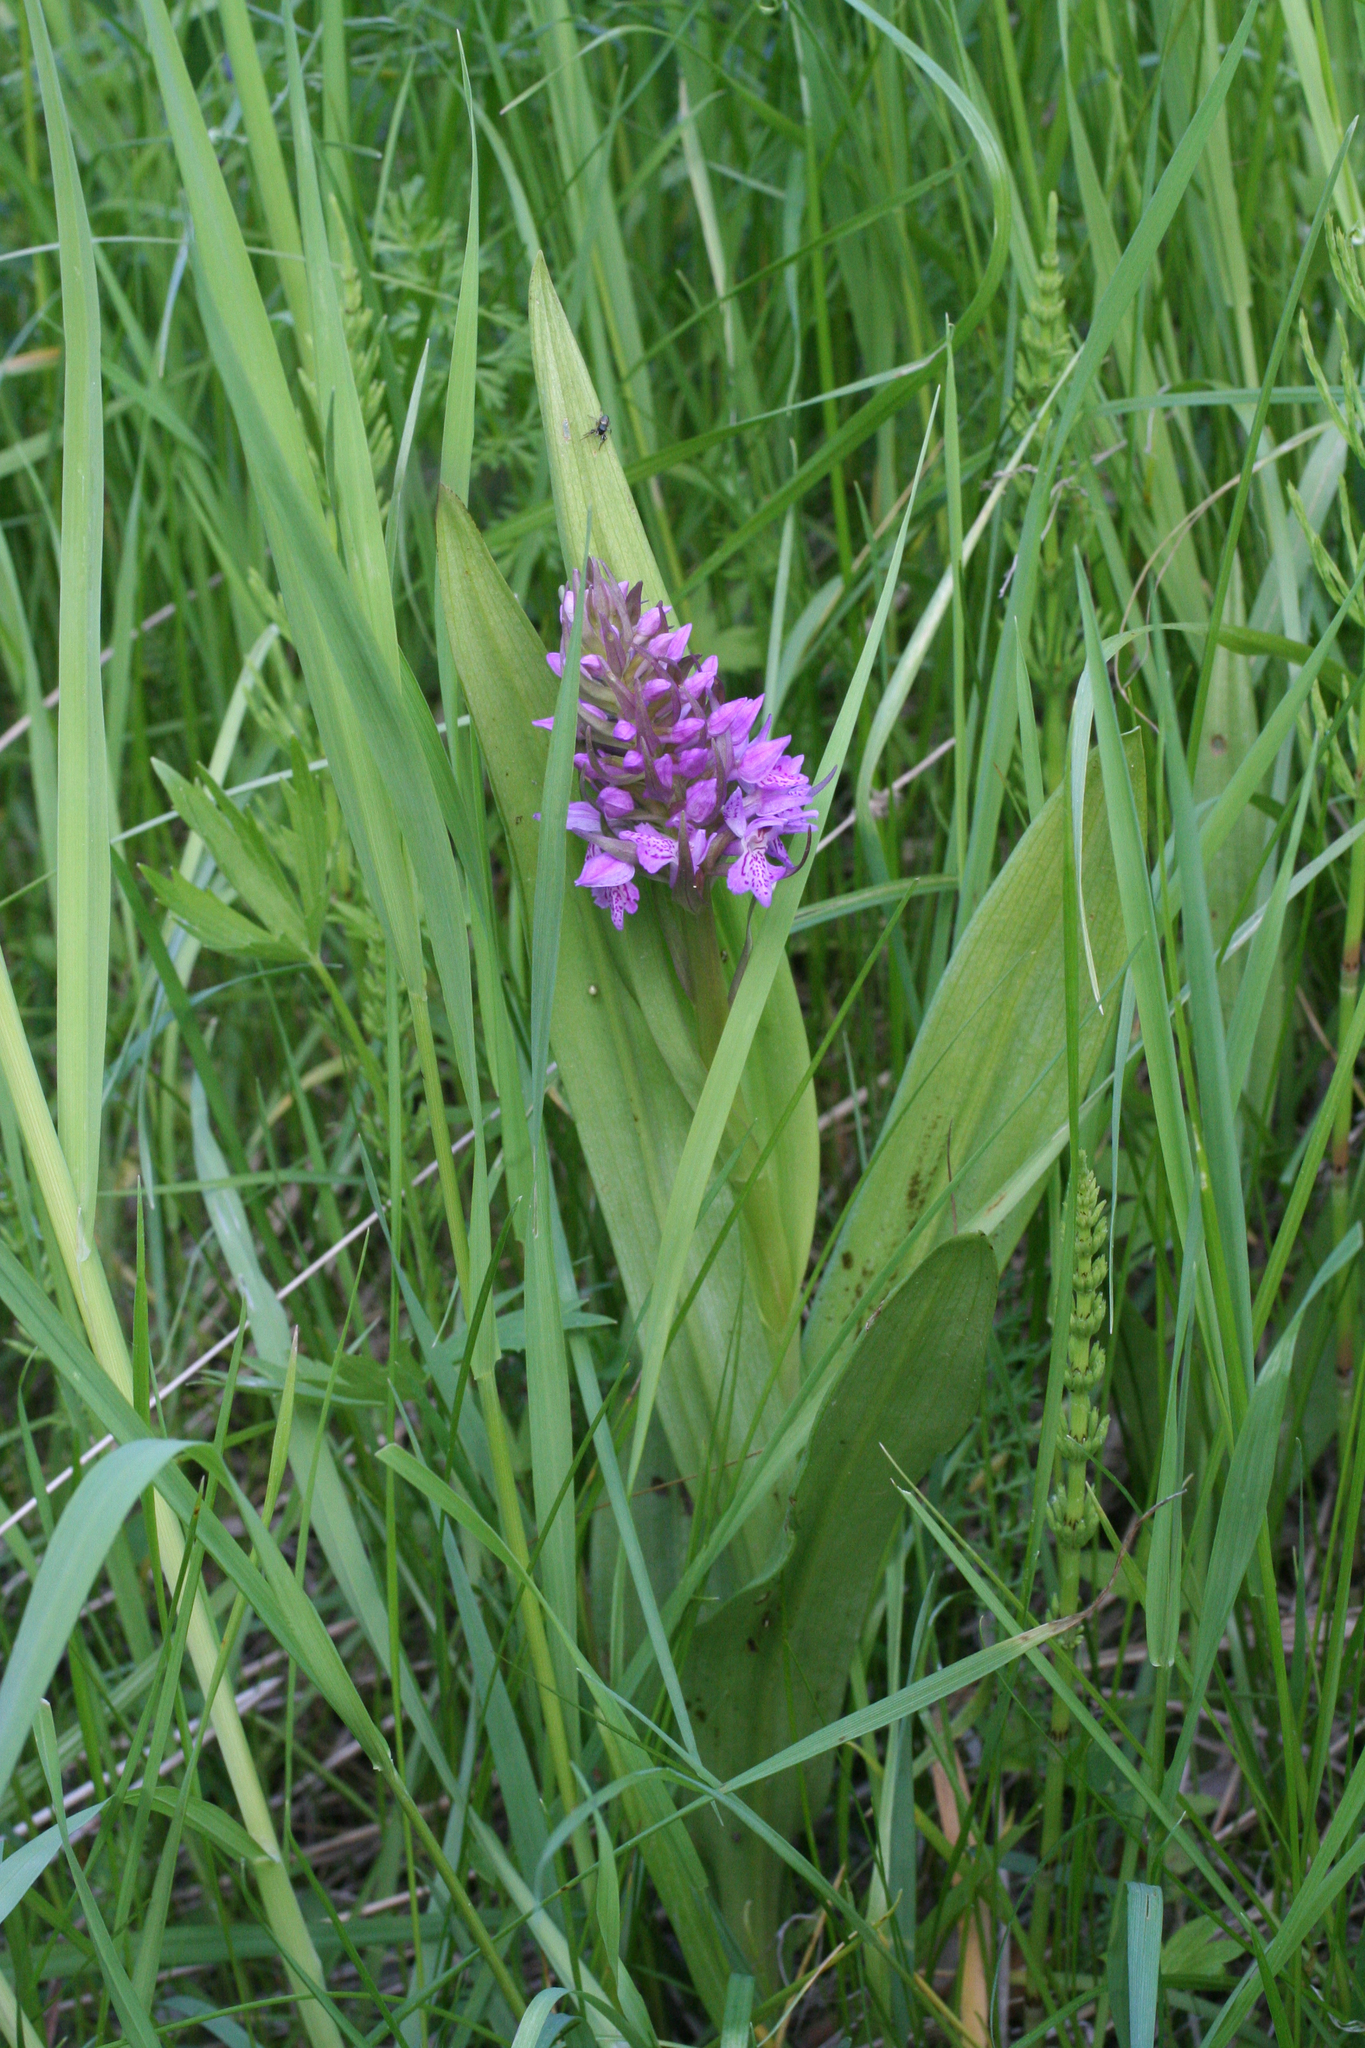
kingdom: Plantae
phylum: Tracheophyta
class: Liliopsida
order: Asparagales
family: Orchidaceae
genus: Dactylorhiza
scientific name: Dactylorhiza incarnata
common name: Early marsh-orchid
